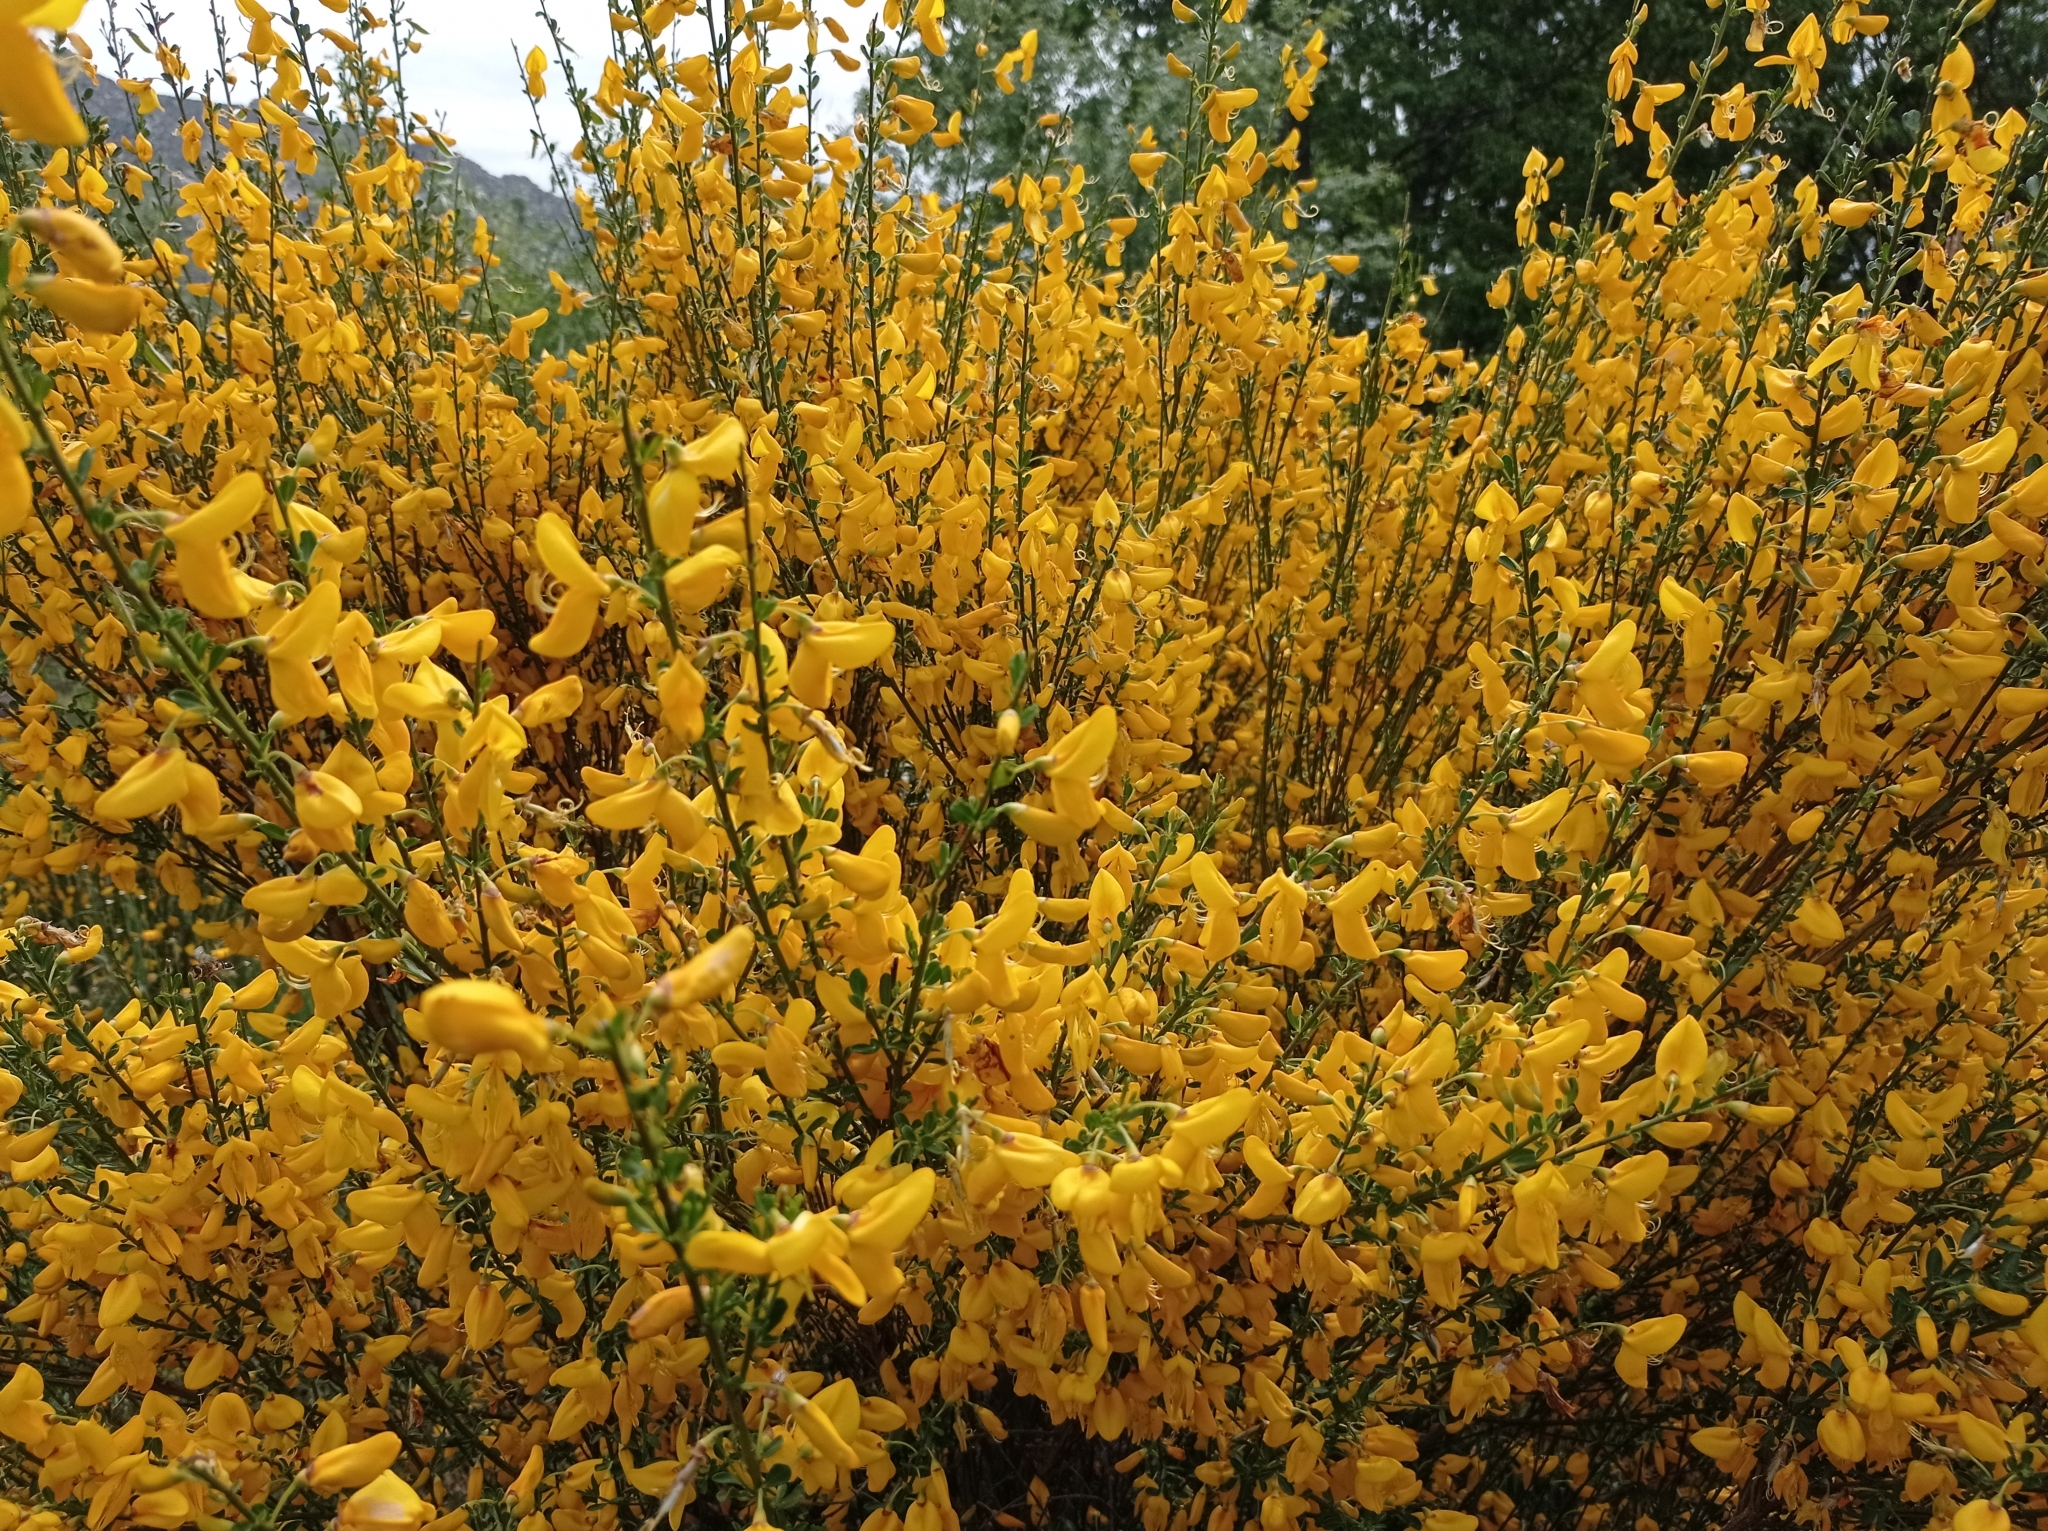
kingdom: Plantae
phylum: Tracheophyta
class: Magnoliopsida
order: Fabales
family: Fabaceae
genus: Cytisus
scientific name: Cytisus scoparius
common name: Scotch broom
